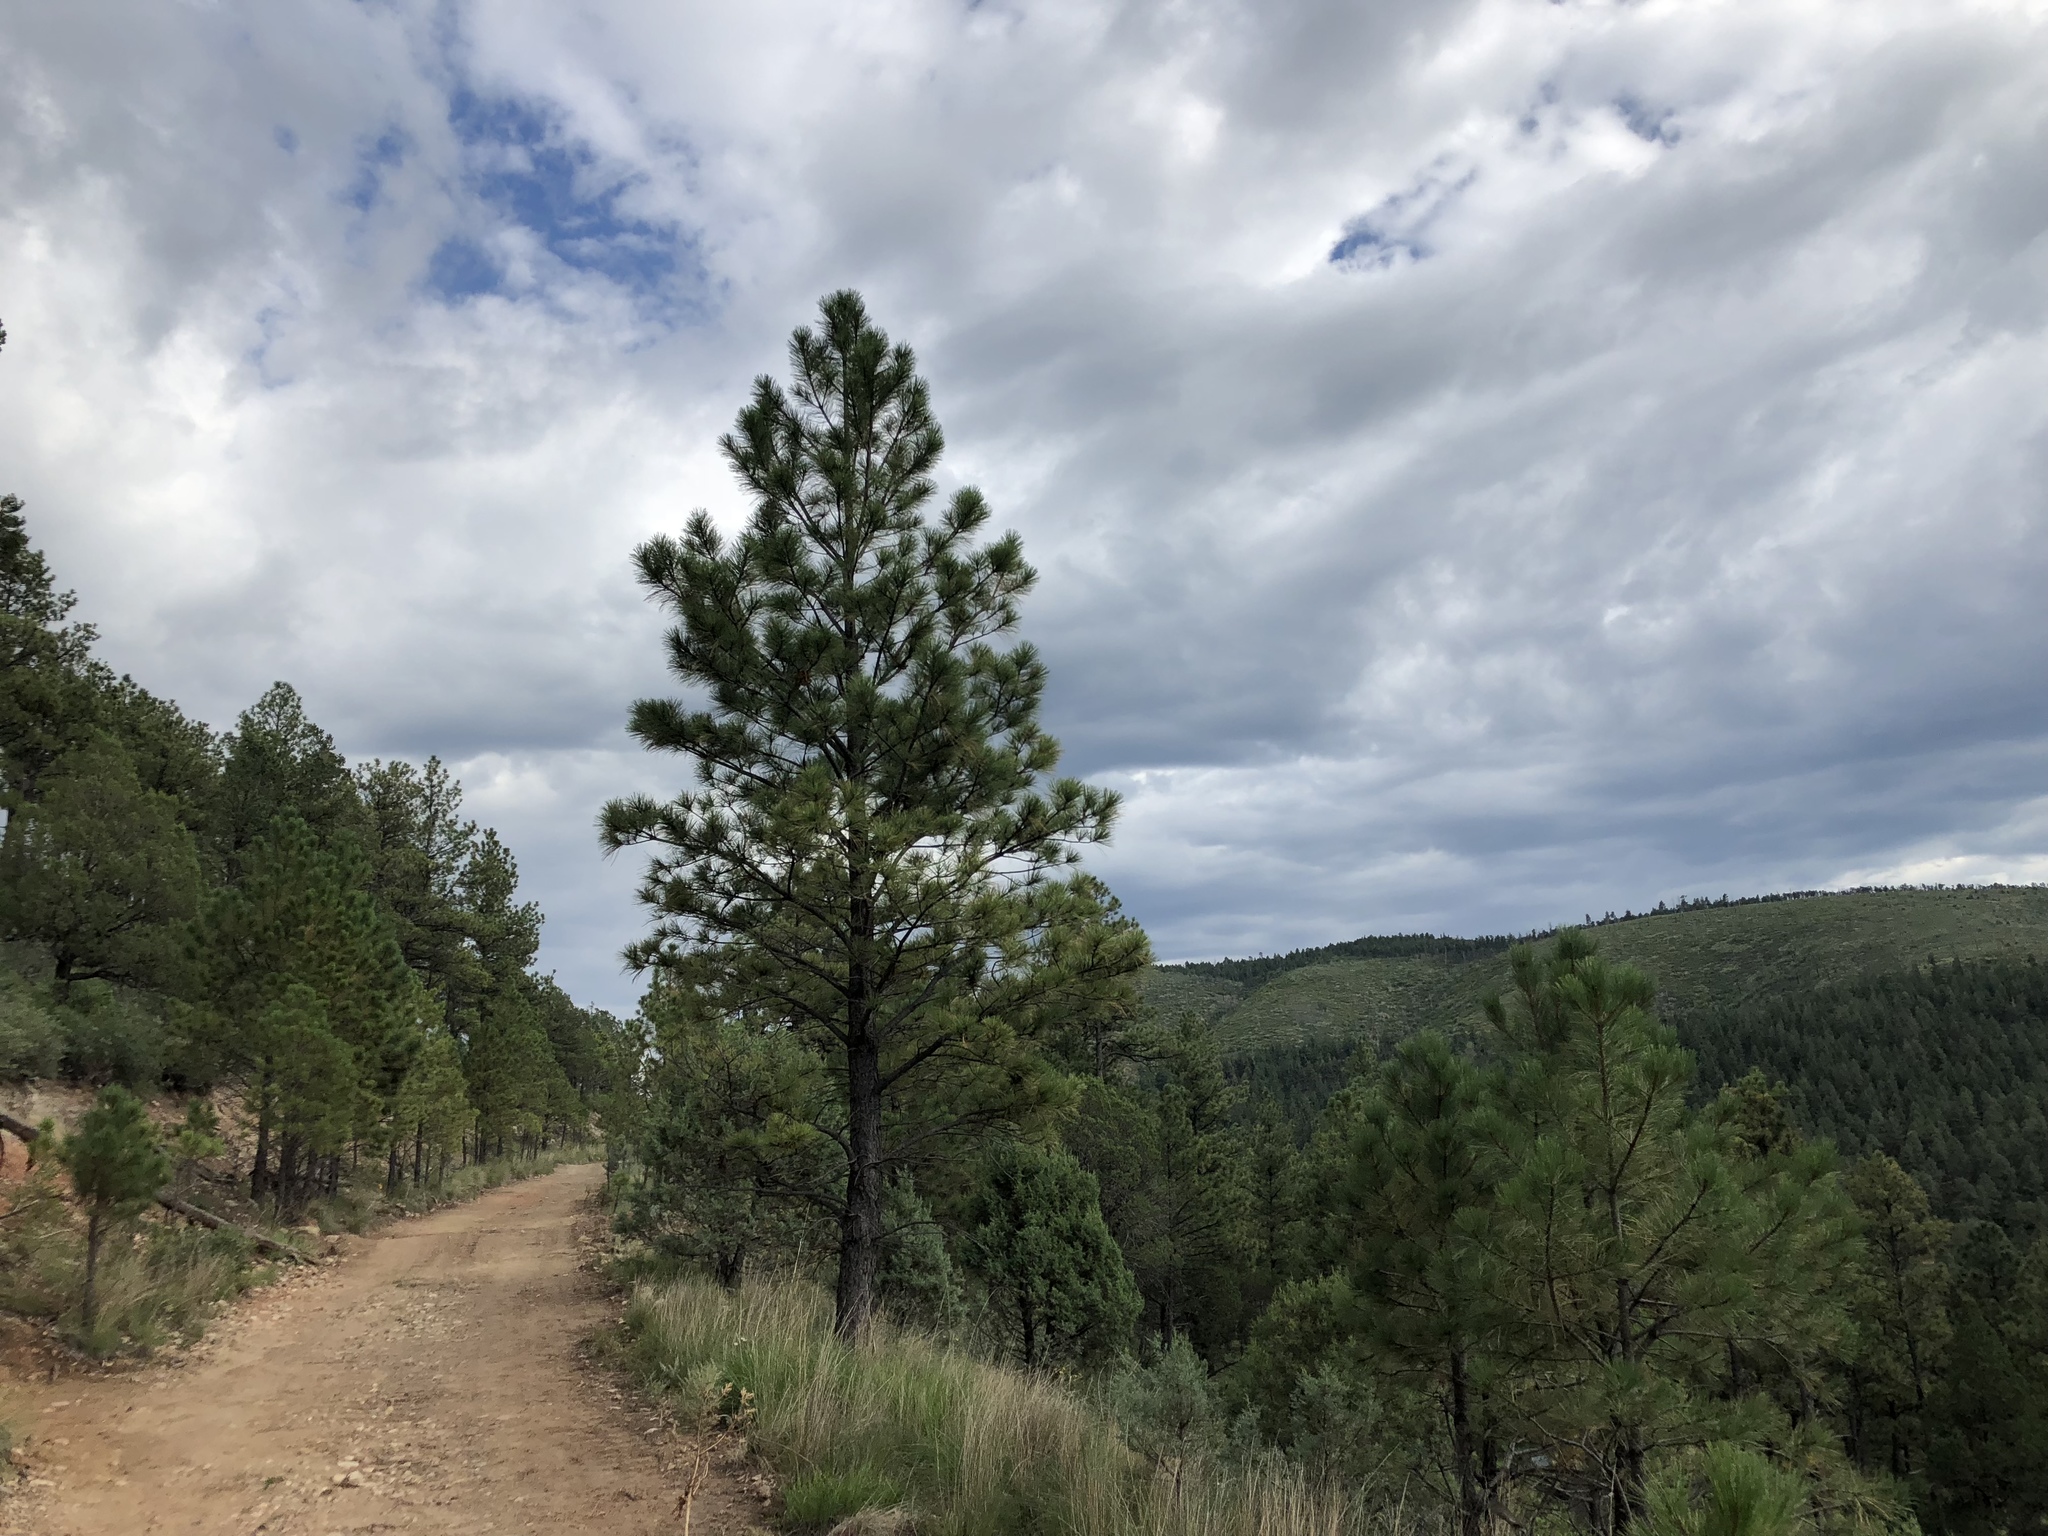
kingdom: Plantae
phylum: Tracheophyta
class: Pinopsida
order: Pinales
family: Pinaceae
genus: Pinus
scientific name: Pinus ponderosa
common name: Western yellow-pine
